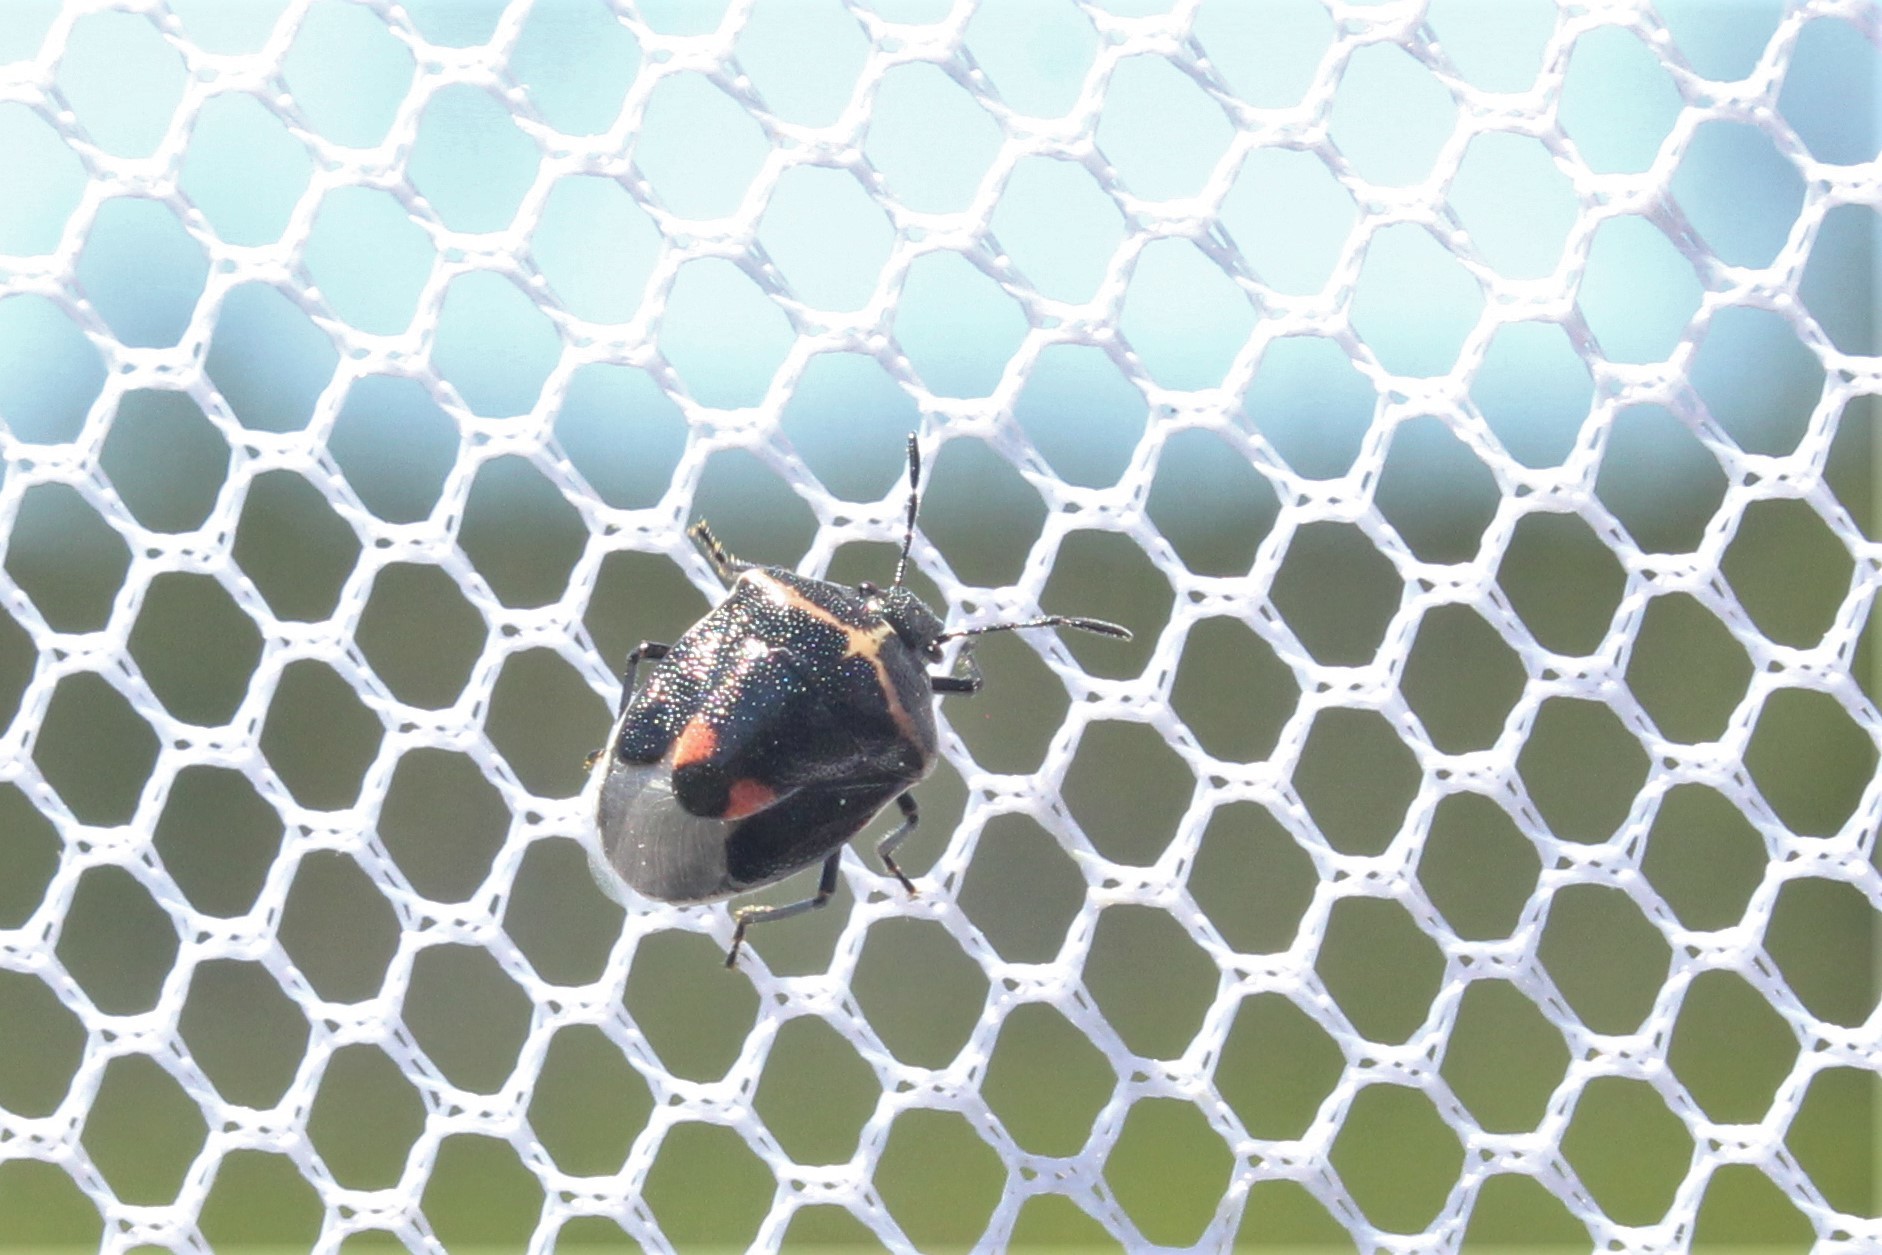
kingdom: Animalia
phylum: Arthropoda
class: Insecta
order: Hemiptera
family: Pentatomidae
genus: Cosmopepla
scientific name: Cosmopepla lintneriana
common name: Twice-stabbed stink bug
